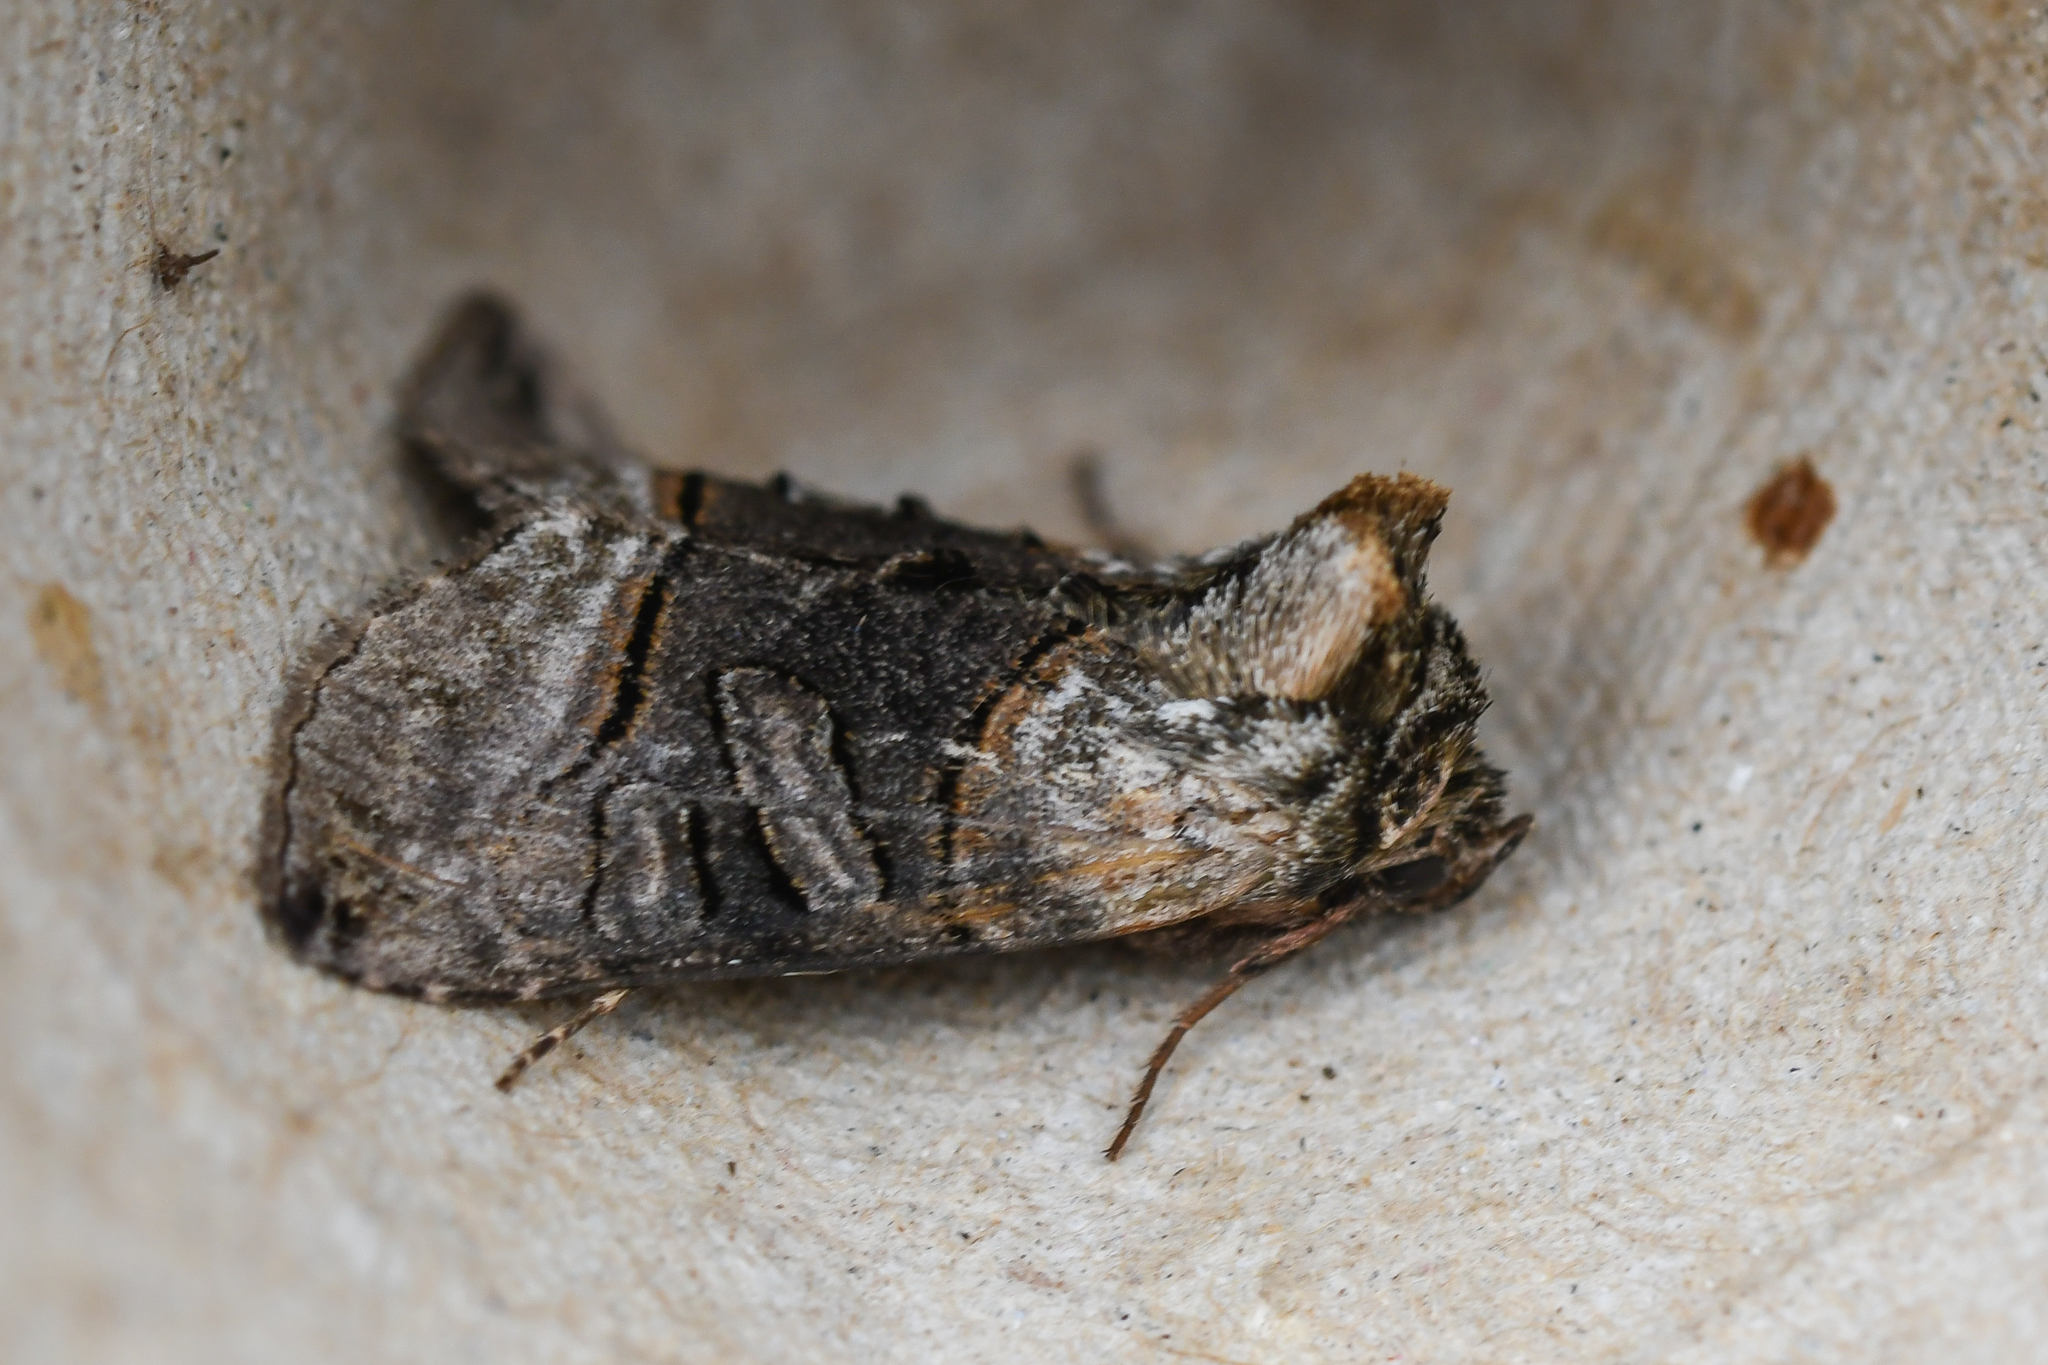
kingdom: Animalia
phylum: Arthropoda
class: Insecta
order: Lepidoptera
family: Noctuidae
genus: Abrostola
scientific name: Abrostola tripartita
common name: Spectacle
